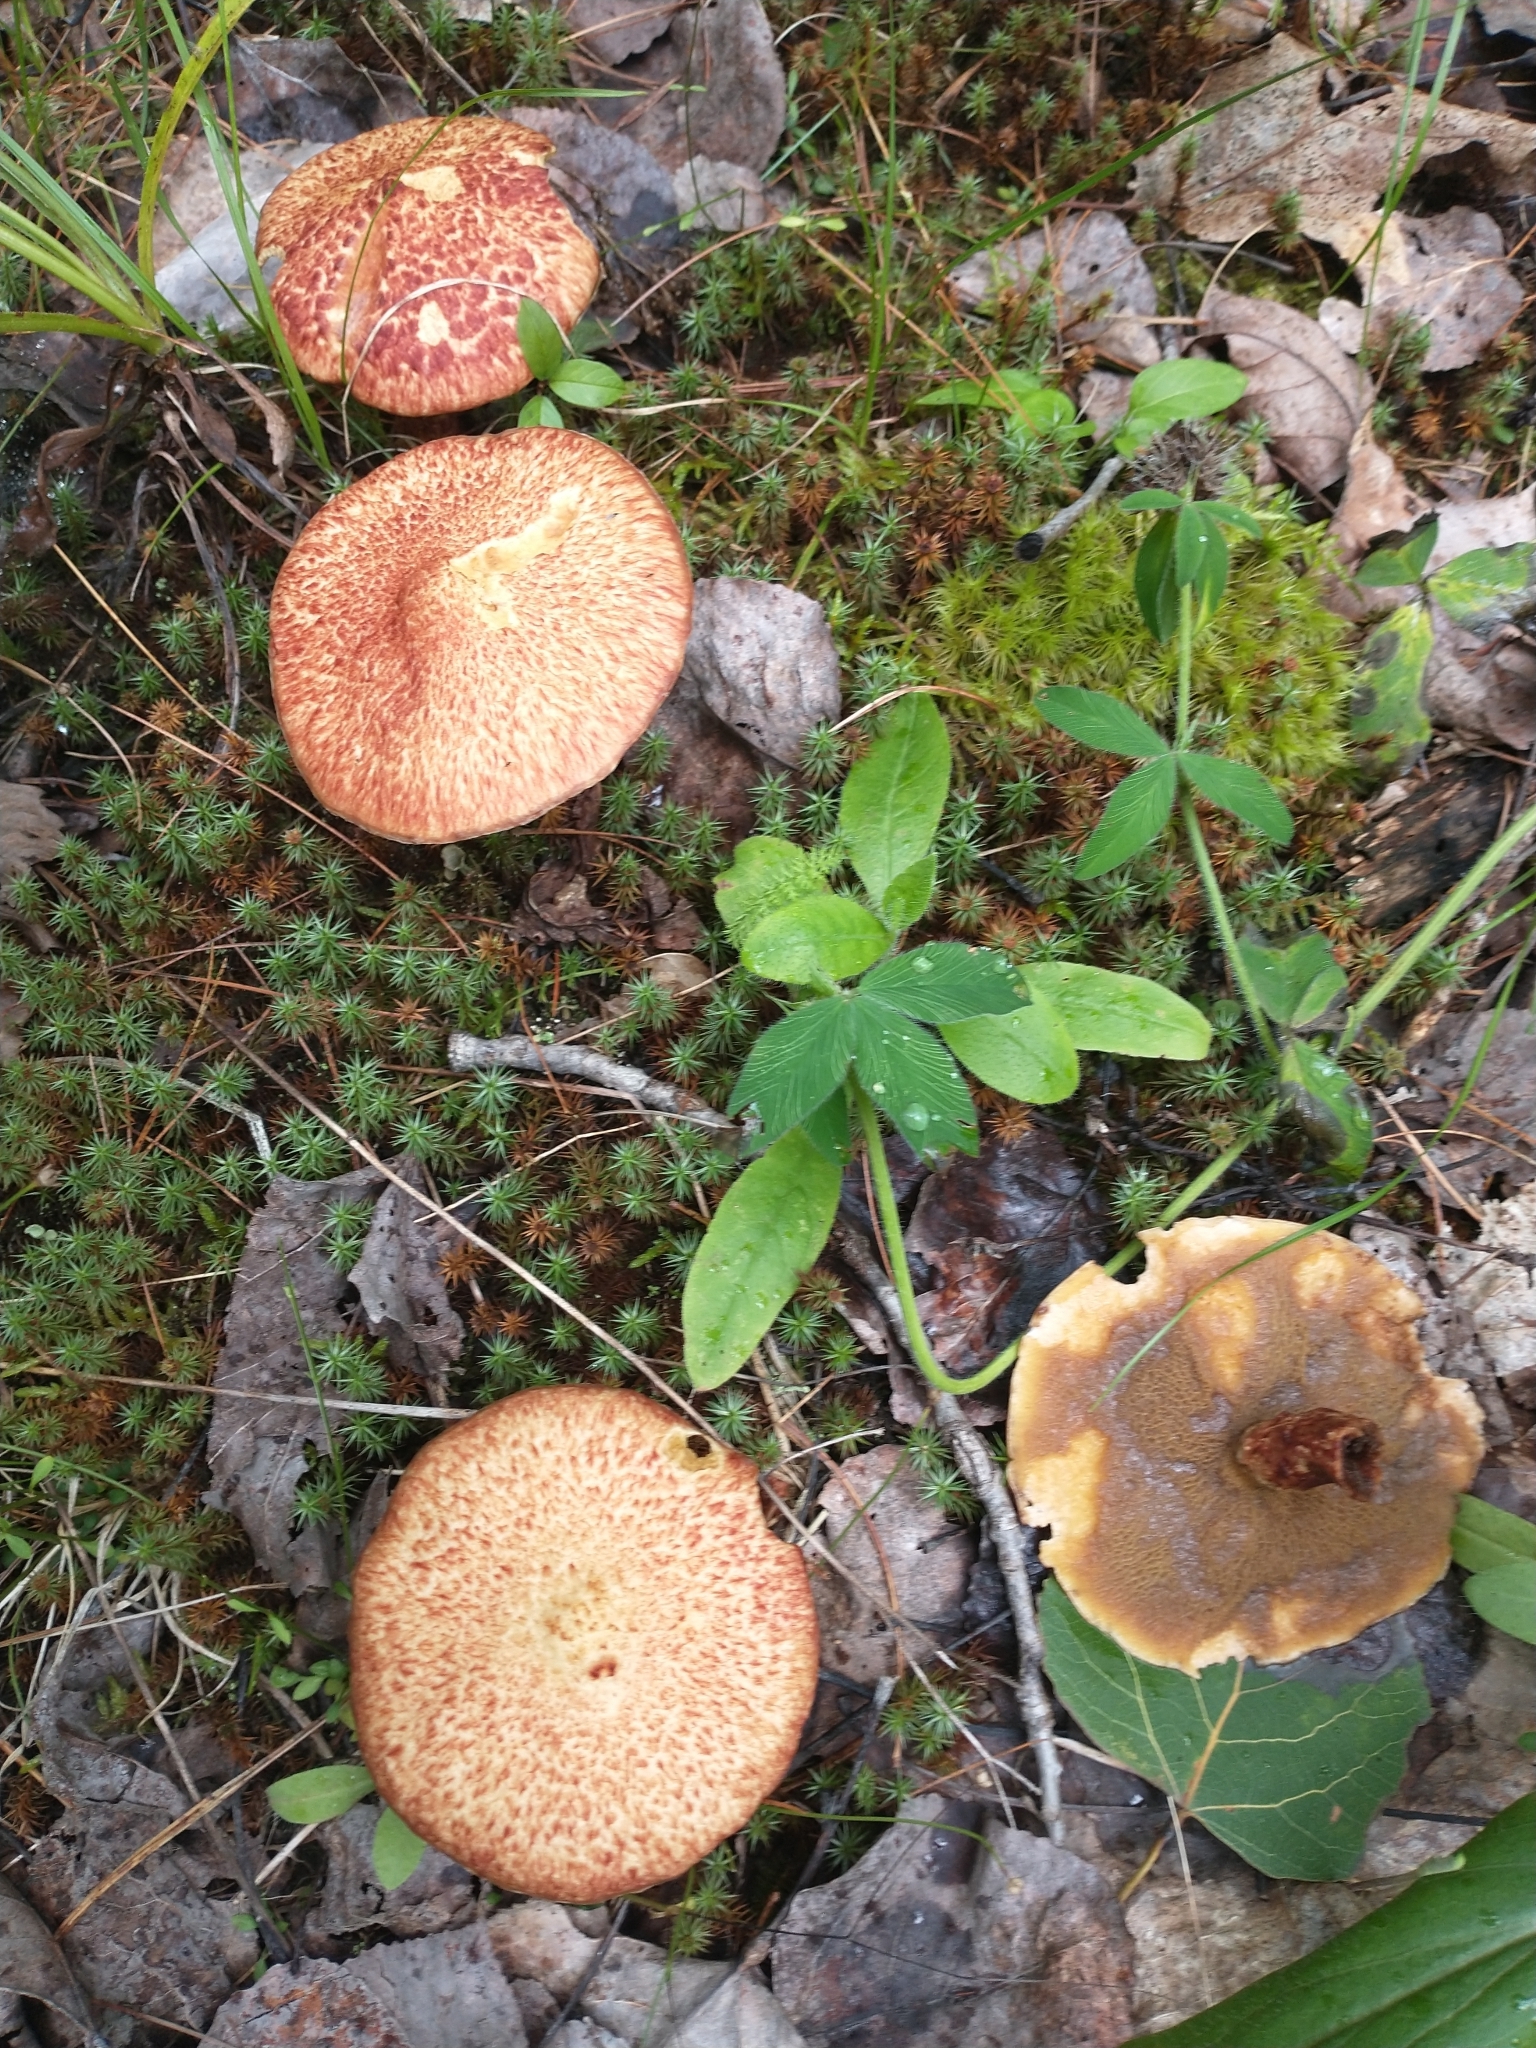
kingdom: Fungi
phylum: Basidiomycota
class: Agaricomycetes
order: Boletales
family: Suillaceae
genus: Suillus
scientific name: Suillus spraguei
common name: Painted suillus
